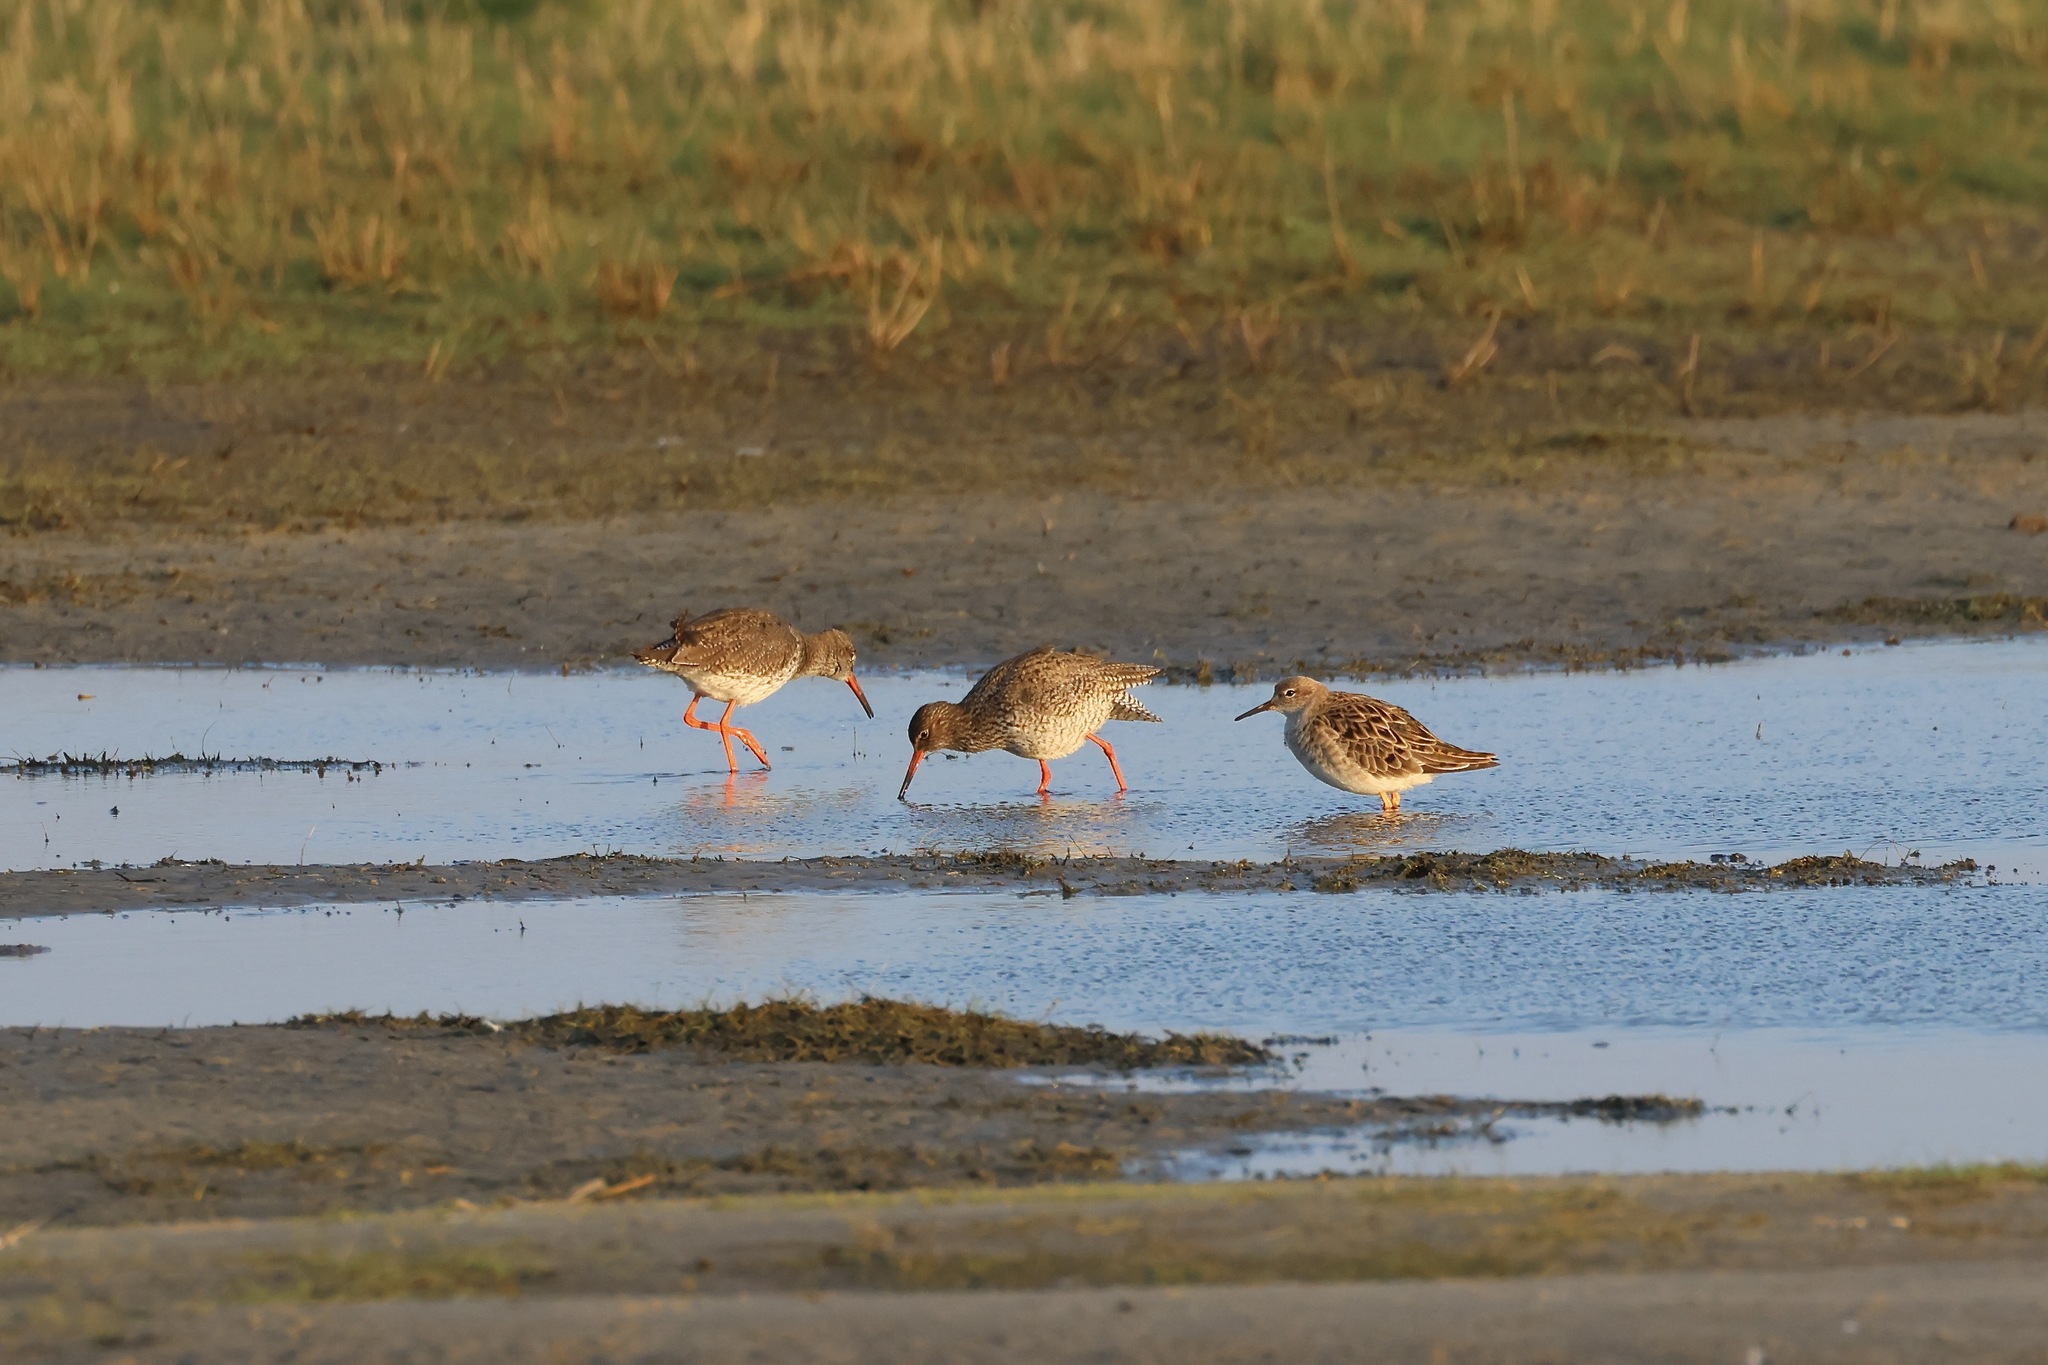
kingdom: Animalia
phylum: Chordata
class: Aves
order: Charadriiformes
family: Scolopacidae
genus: Tringa
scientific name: Tringa totanus
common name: Common redshank
